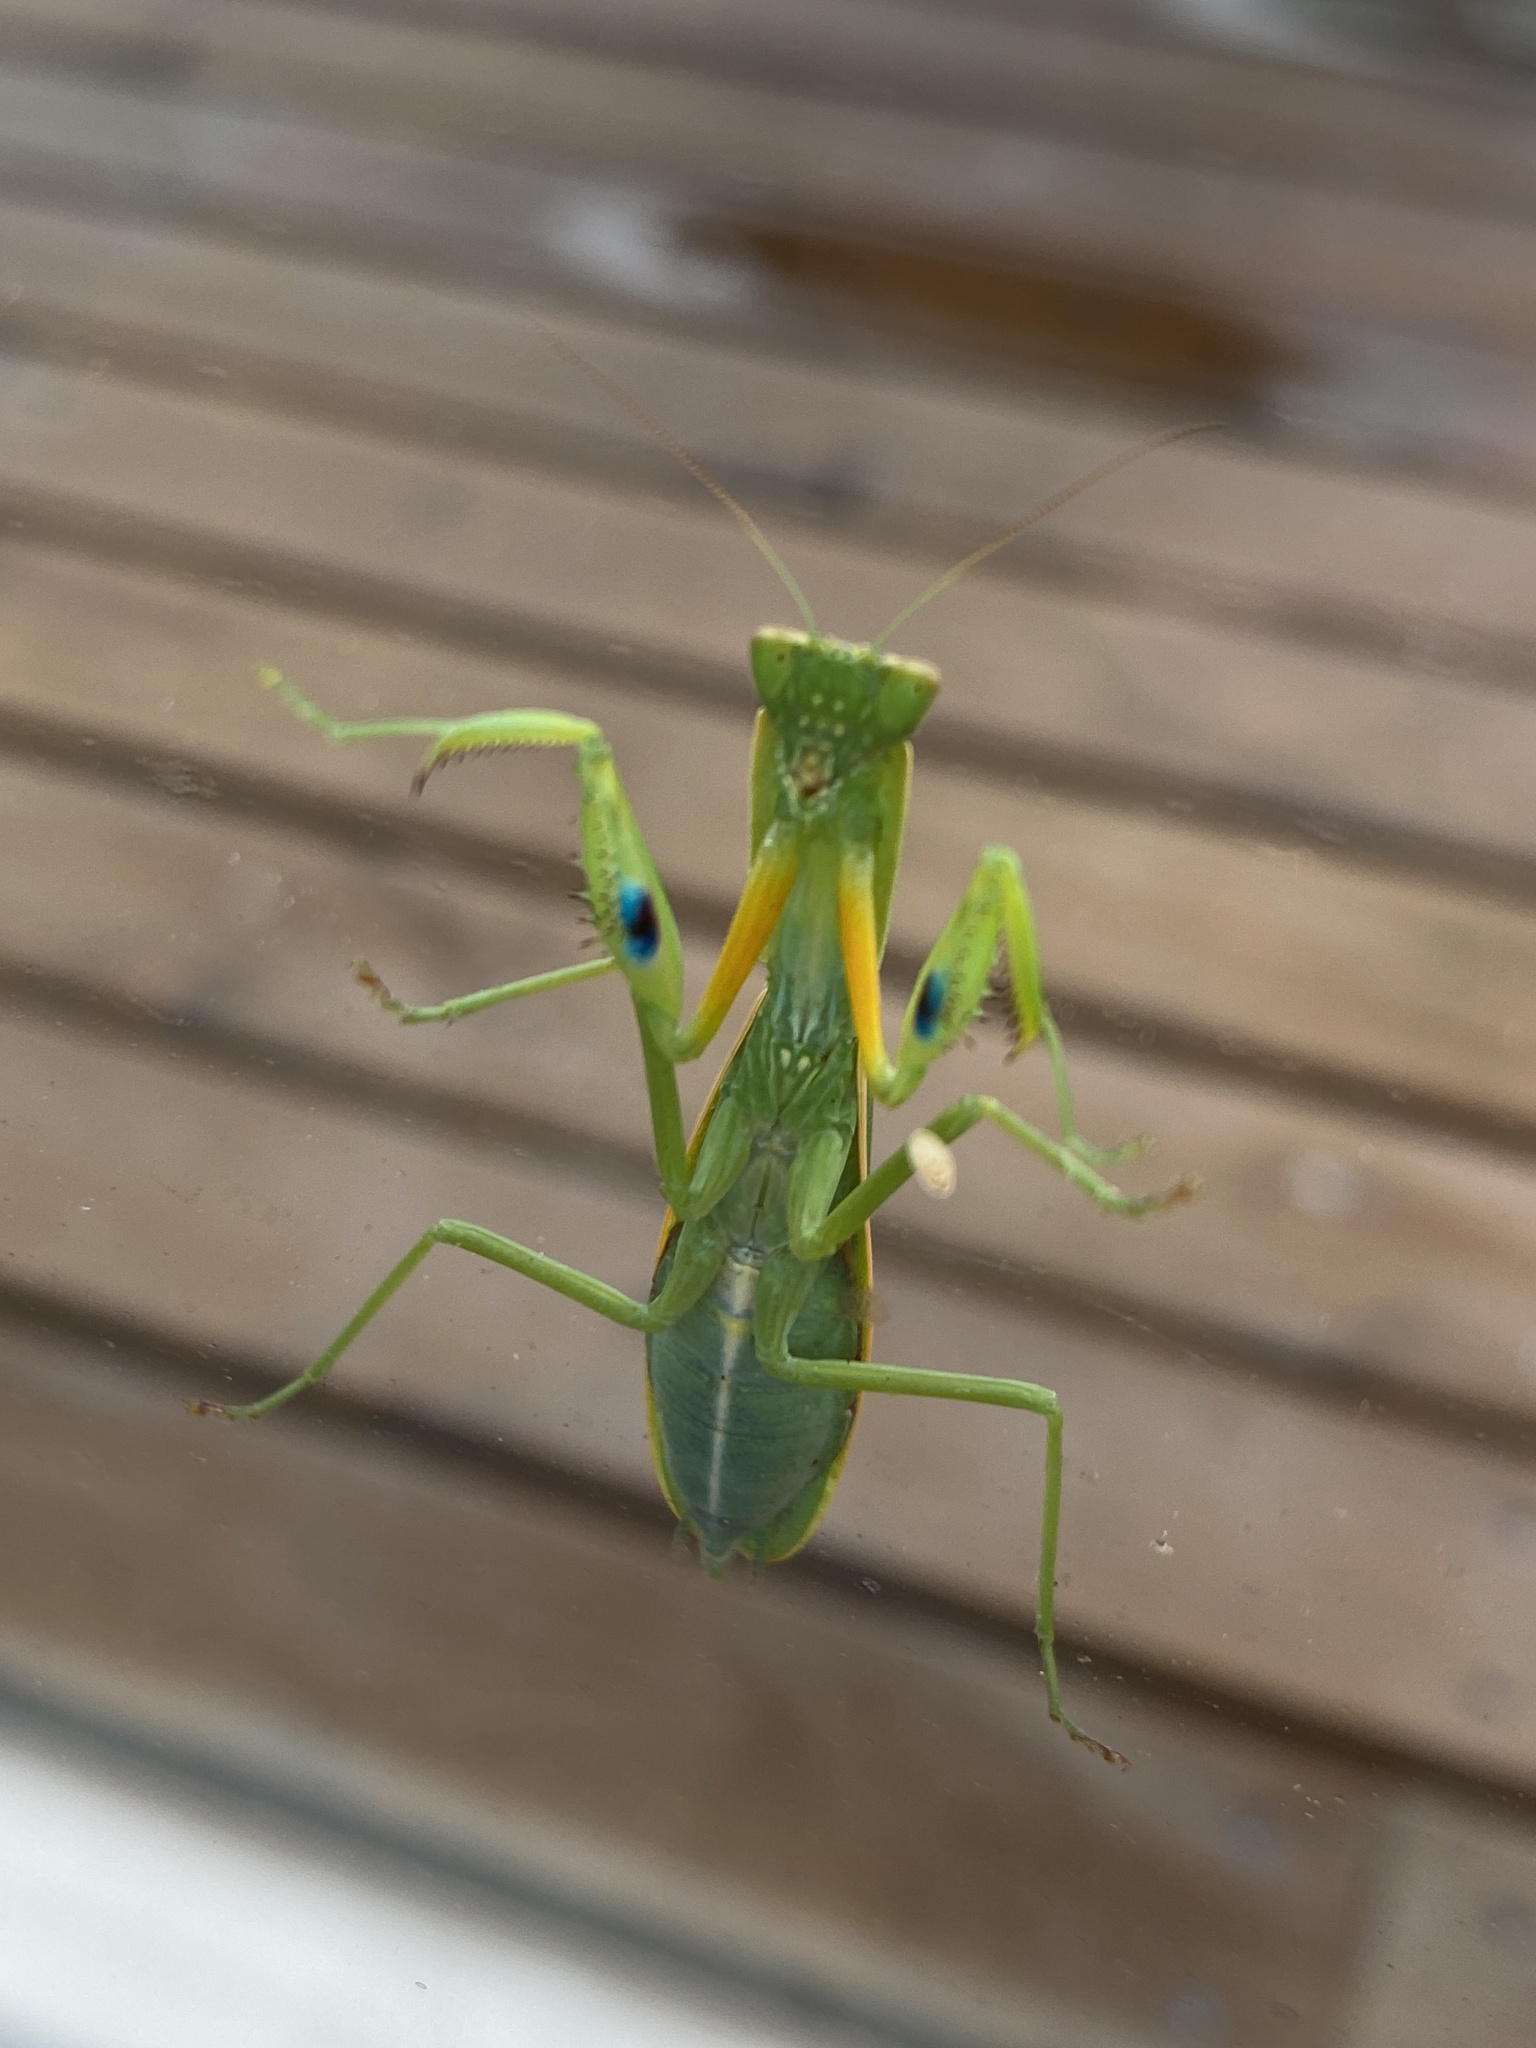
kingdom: Animalia
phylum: Arthropoda
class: Insecta
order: Mantodea
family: Mantidae
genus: Orthodera
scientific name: Orthodera novaezealandiae
